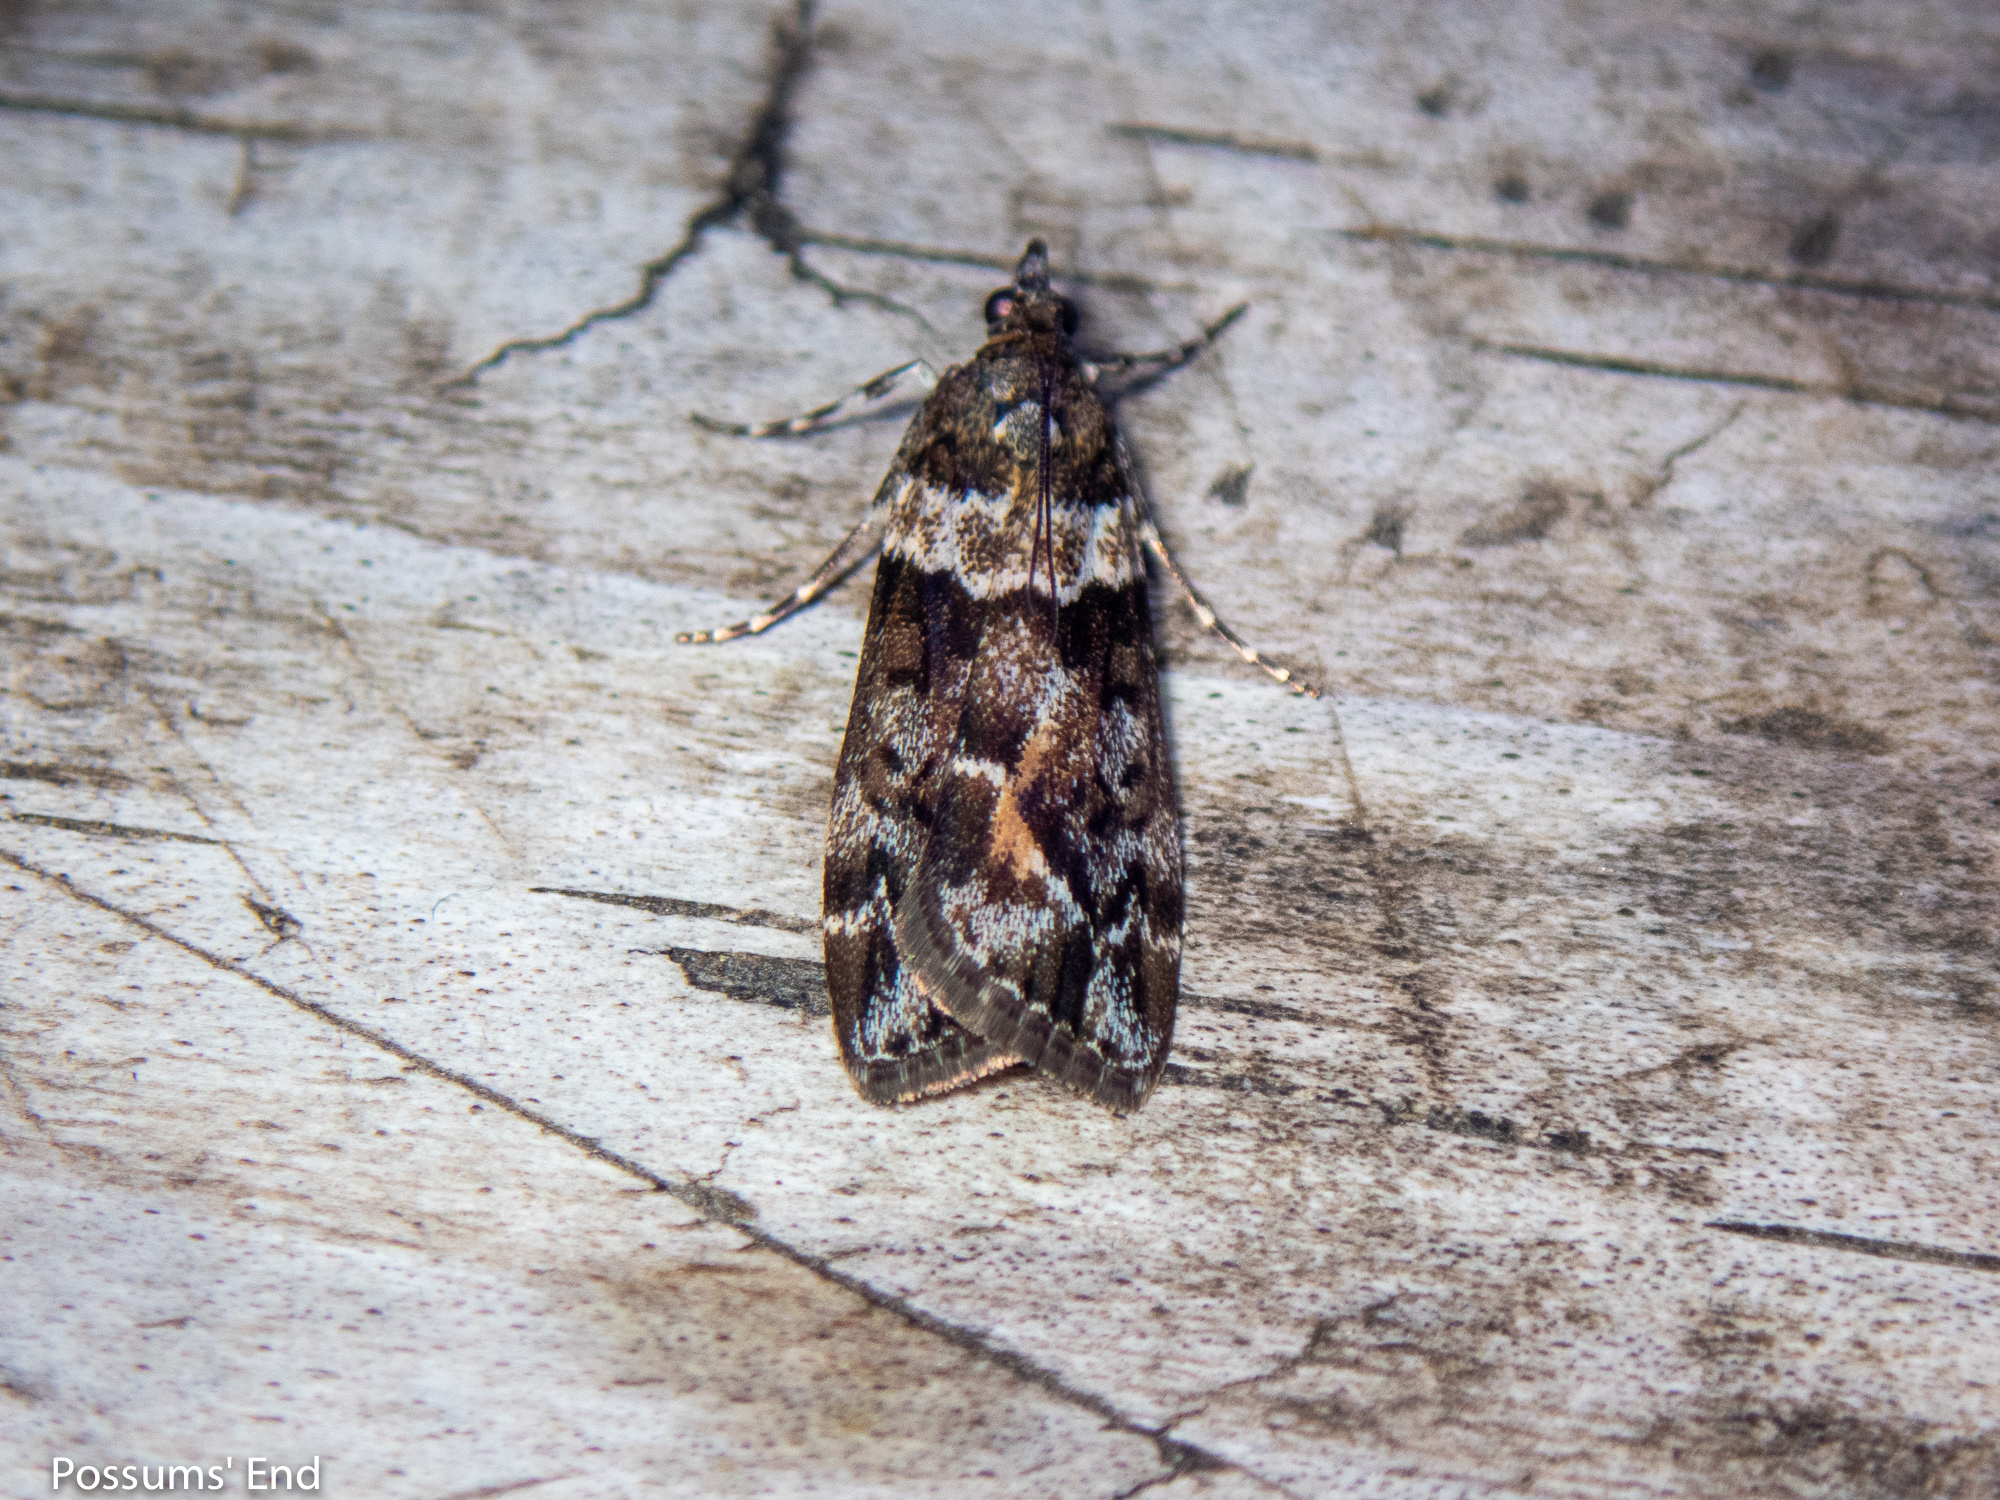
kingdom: Animalia
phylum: Arthropoda
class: Insecta
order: Lepidoptera
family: Crambidae
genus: Eudonia
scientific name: Eudonia submarginalis
